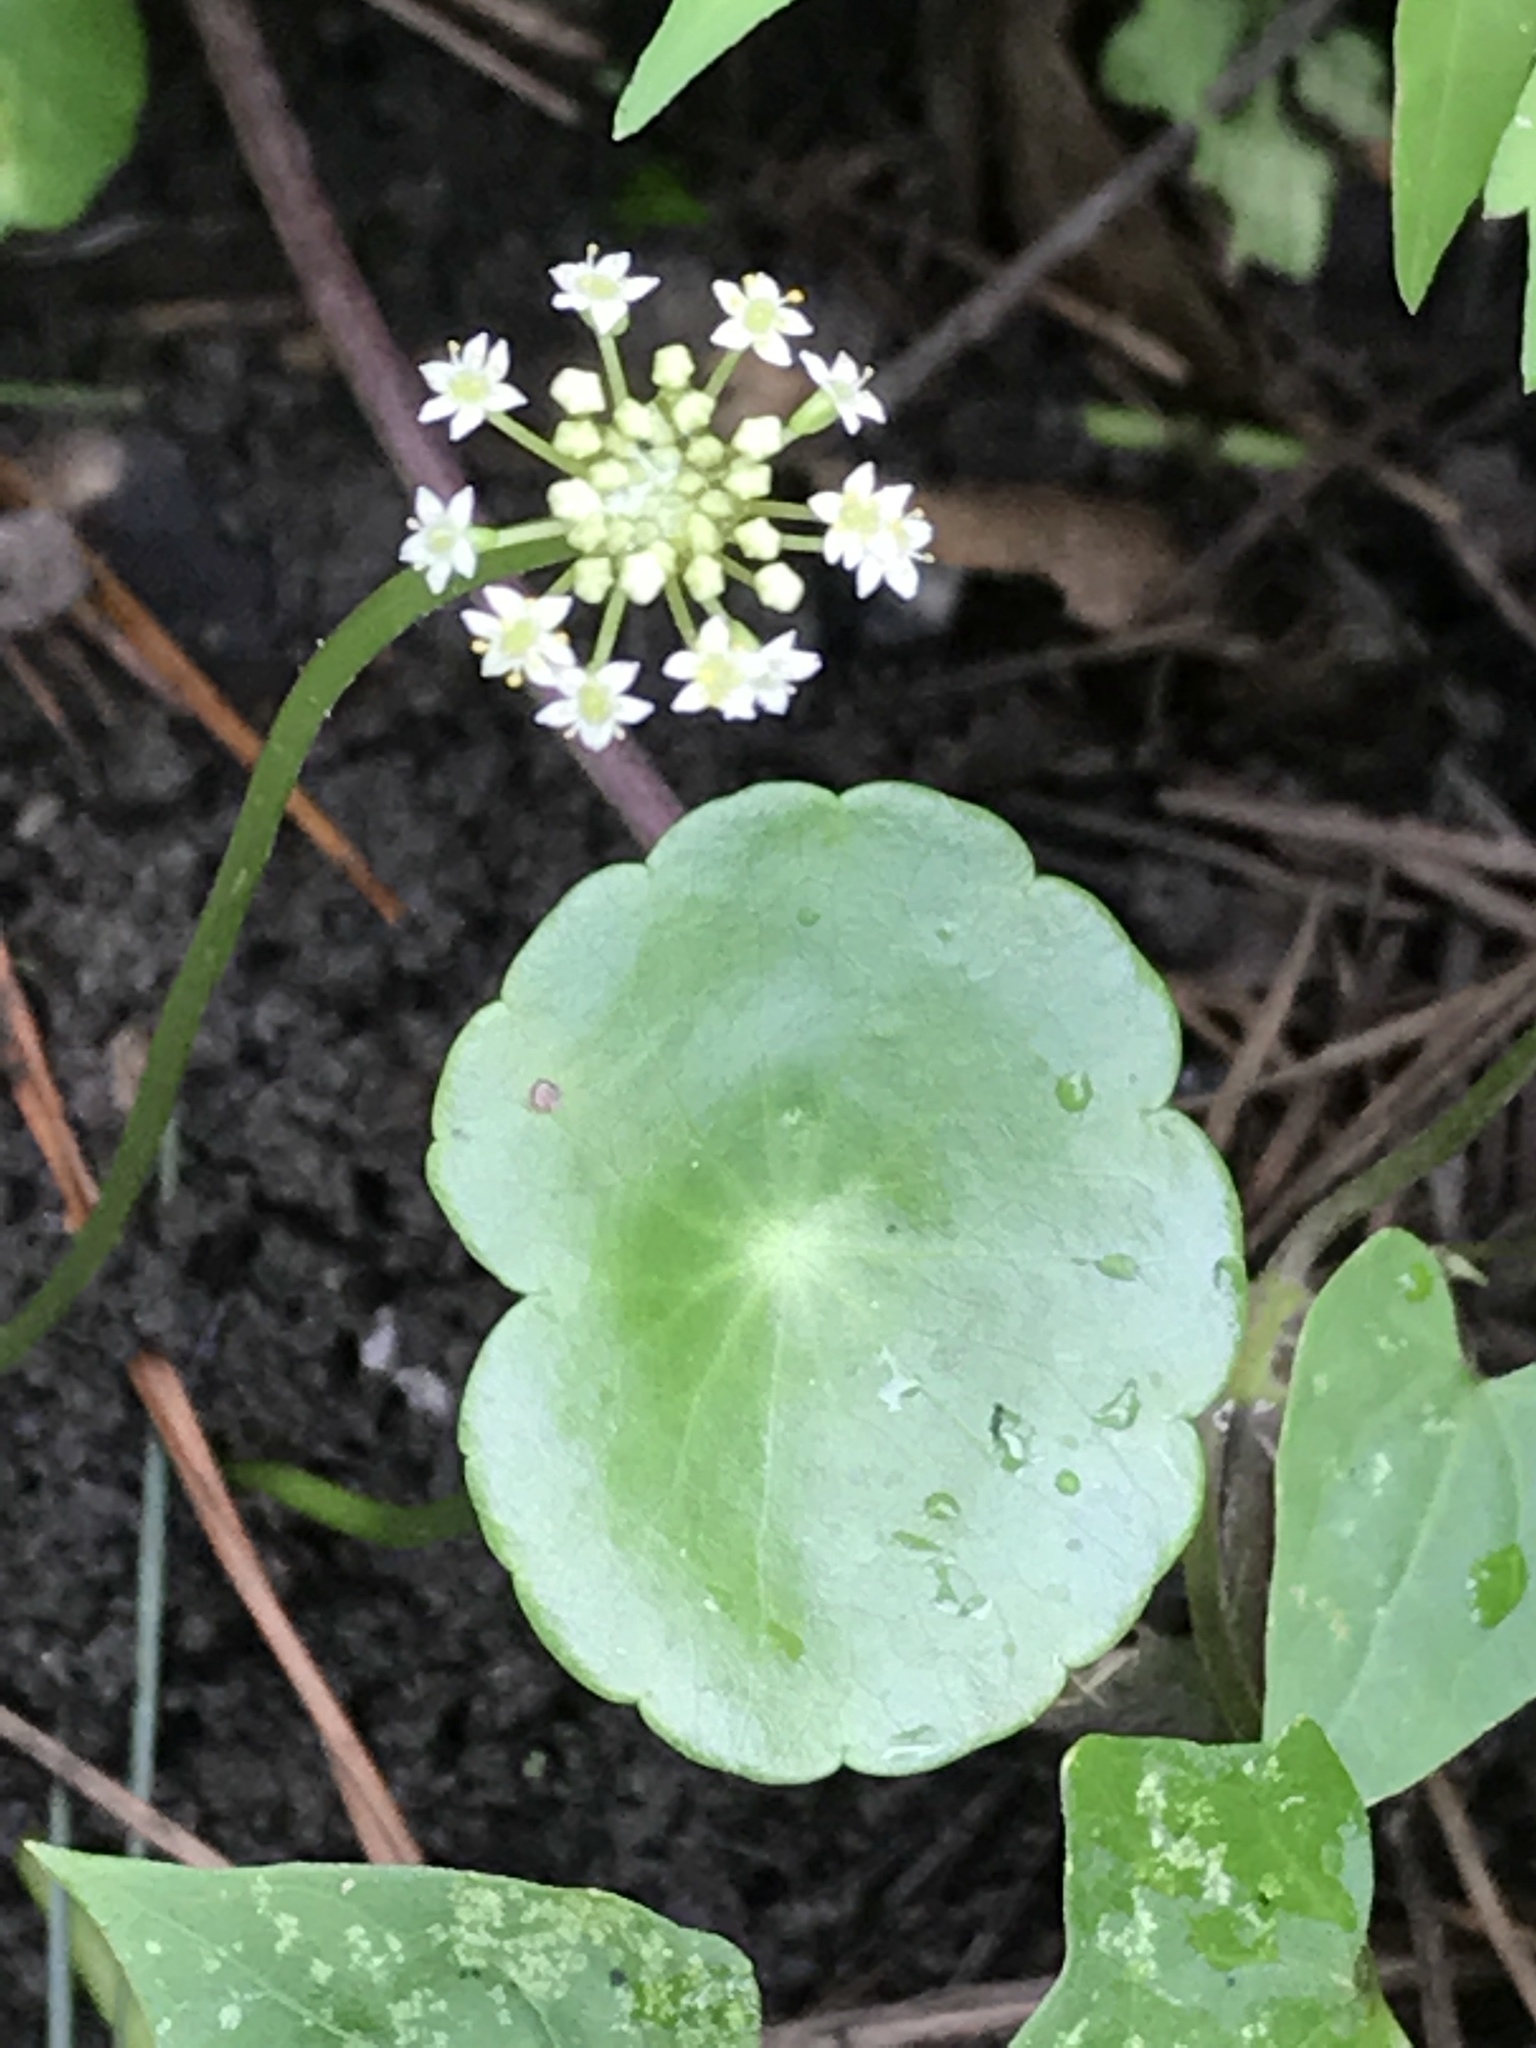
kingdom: Plantae
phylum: Tracheophyta
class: Magnoliopsida
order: Apiales
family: Araliaceae
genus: Hydrocotyle
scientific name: Hydrocotyle umbellata
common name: Water pennywort
